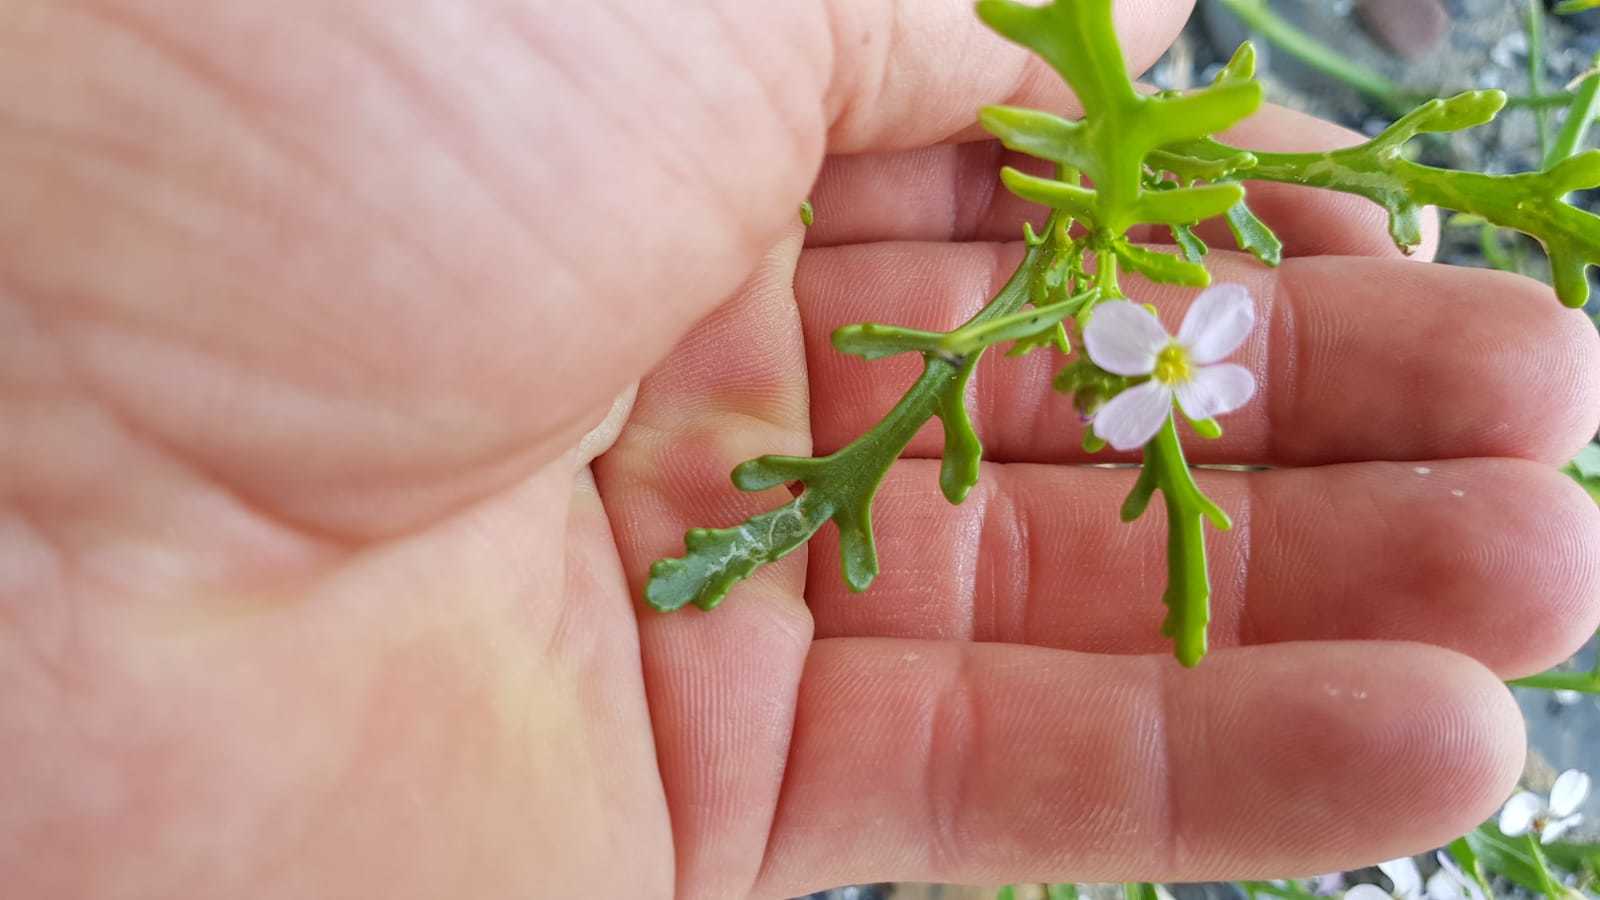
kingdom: Plantae
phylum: Tracheophyta
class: Magnoliopsida
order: Brassicales
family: Brassicaceae
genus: Cakile
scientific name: Cakile maritima
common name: Sea rocket
